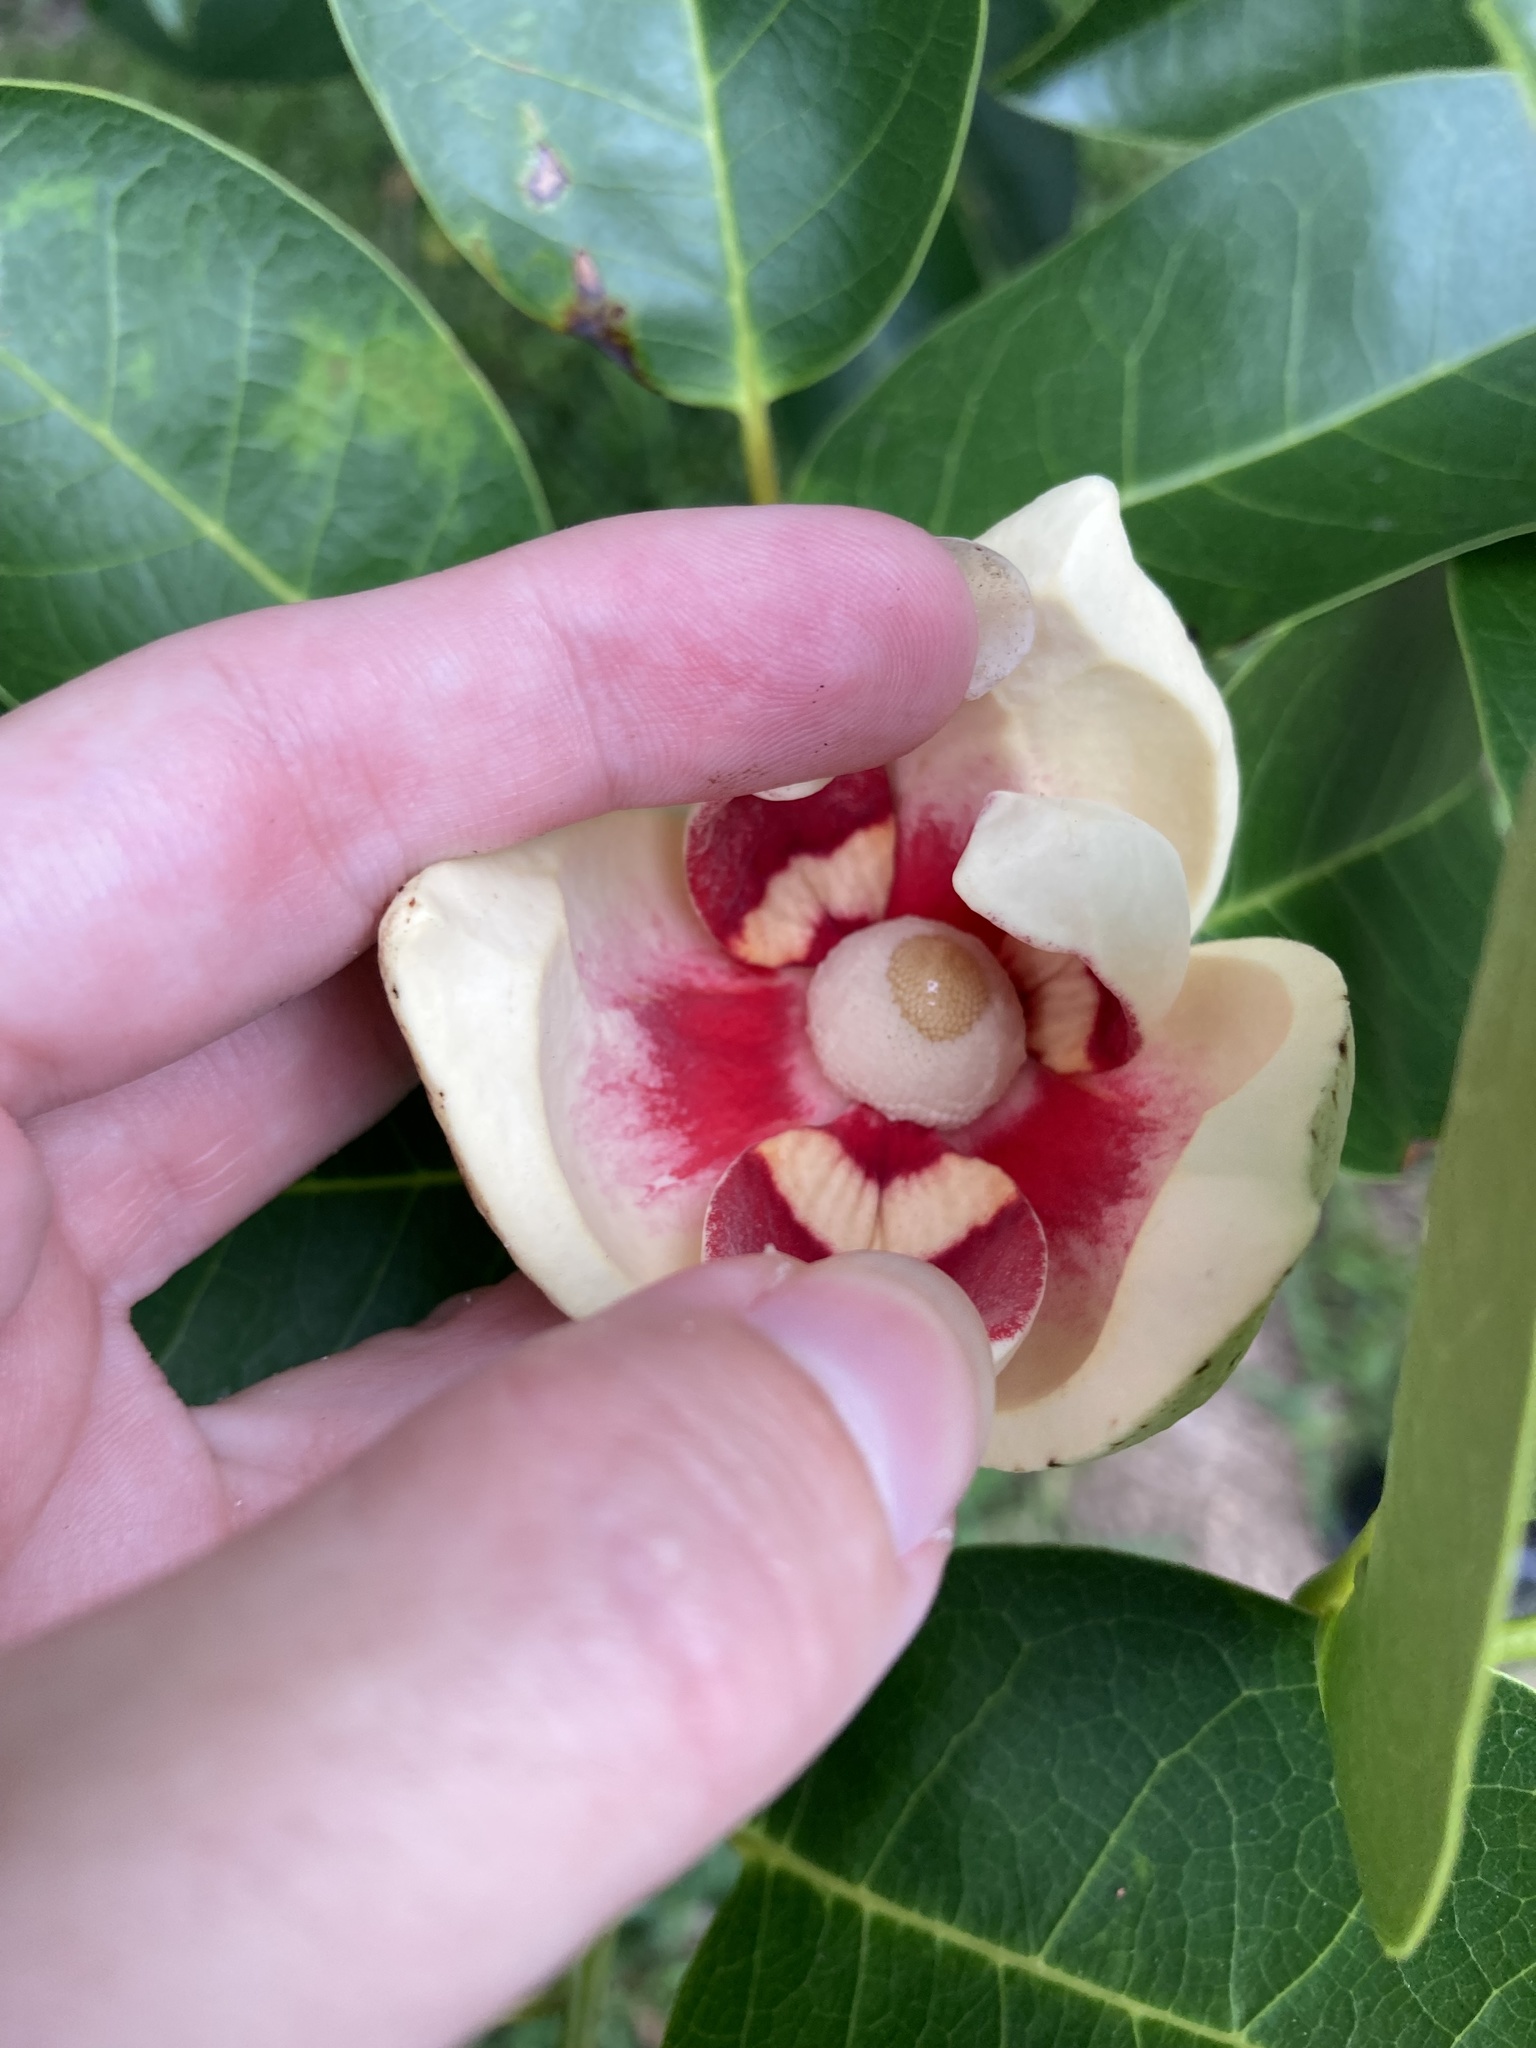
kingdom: Plantae
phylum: Tracheophyta
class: Magnoliopsida
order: Magnoliales
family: Annonaceae
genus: Annona
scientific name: Annona glabra
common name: Monkey apple
